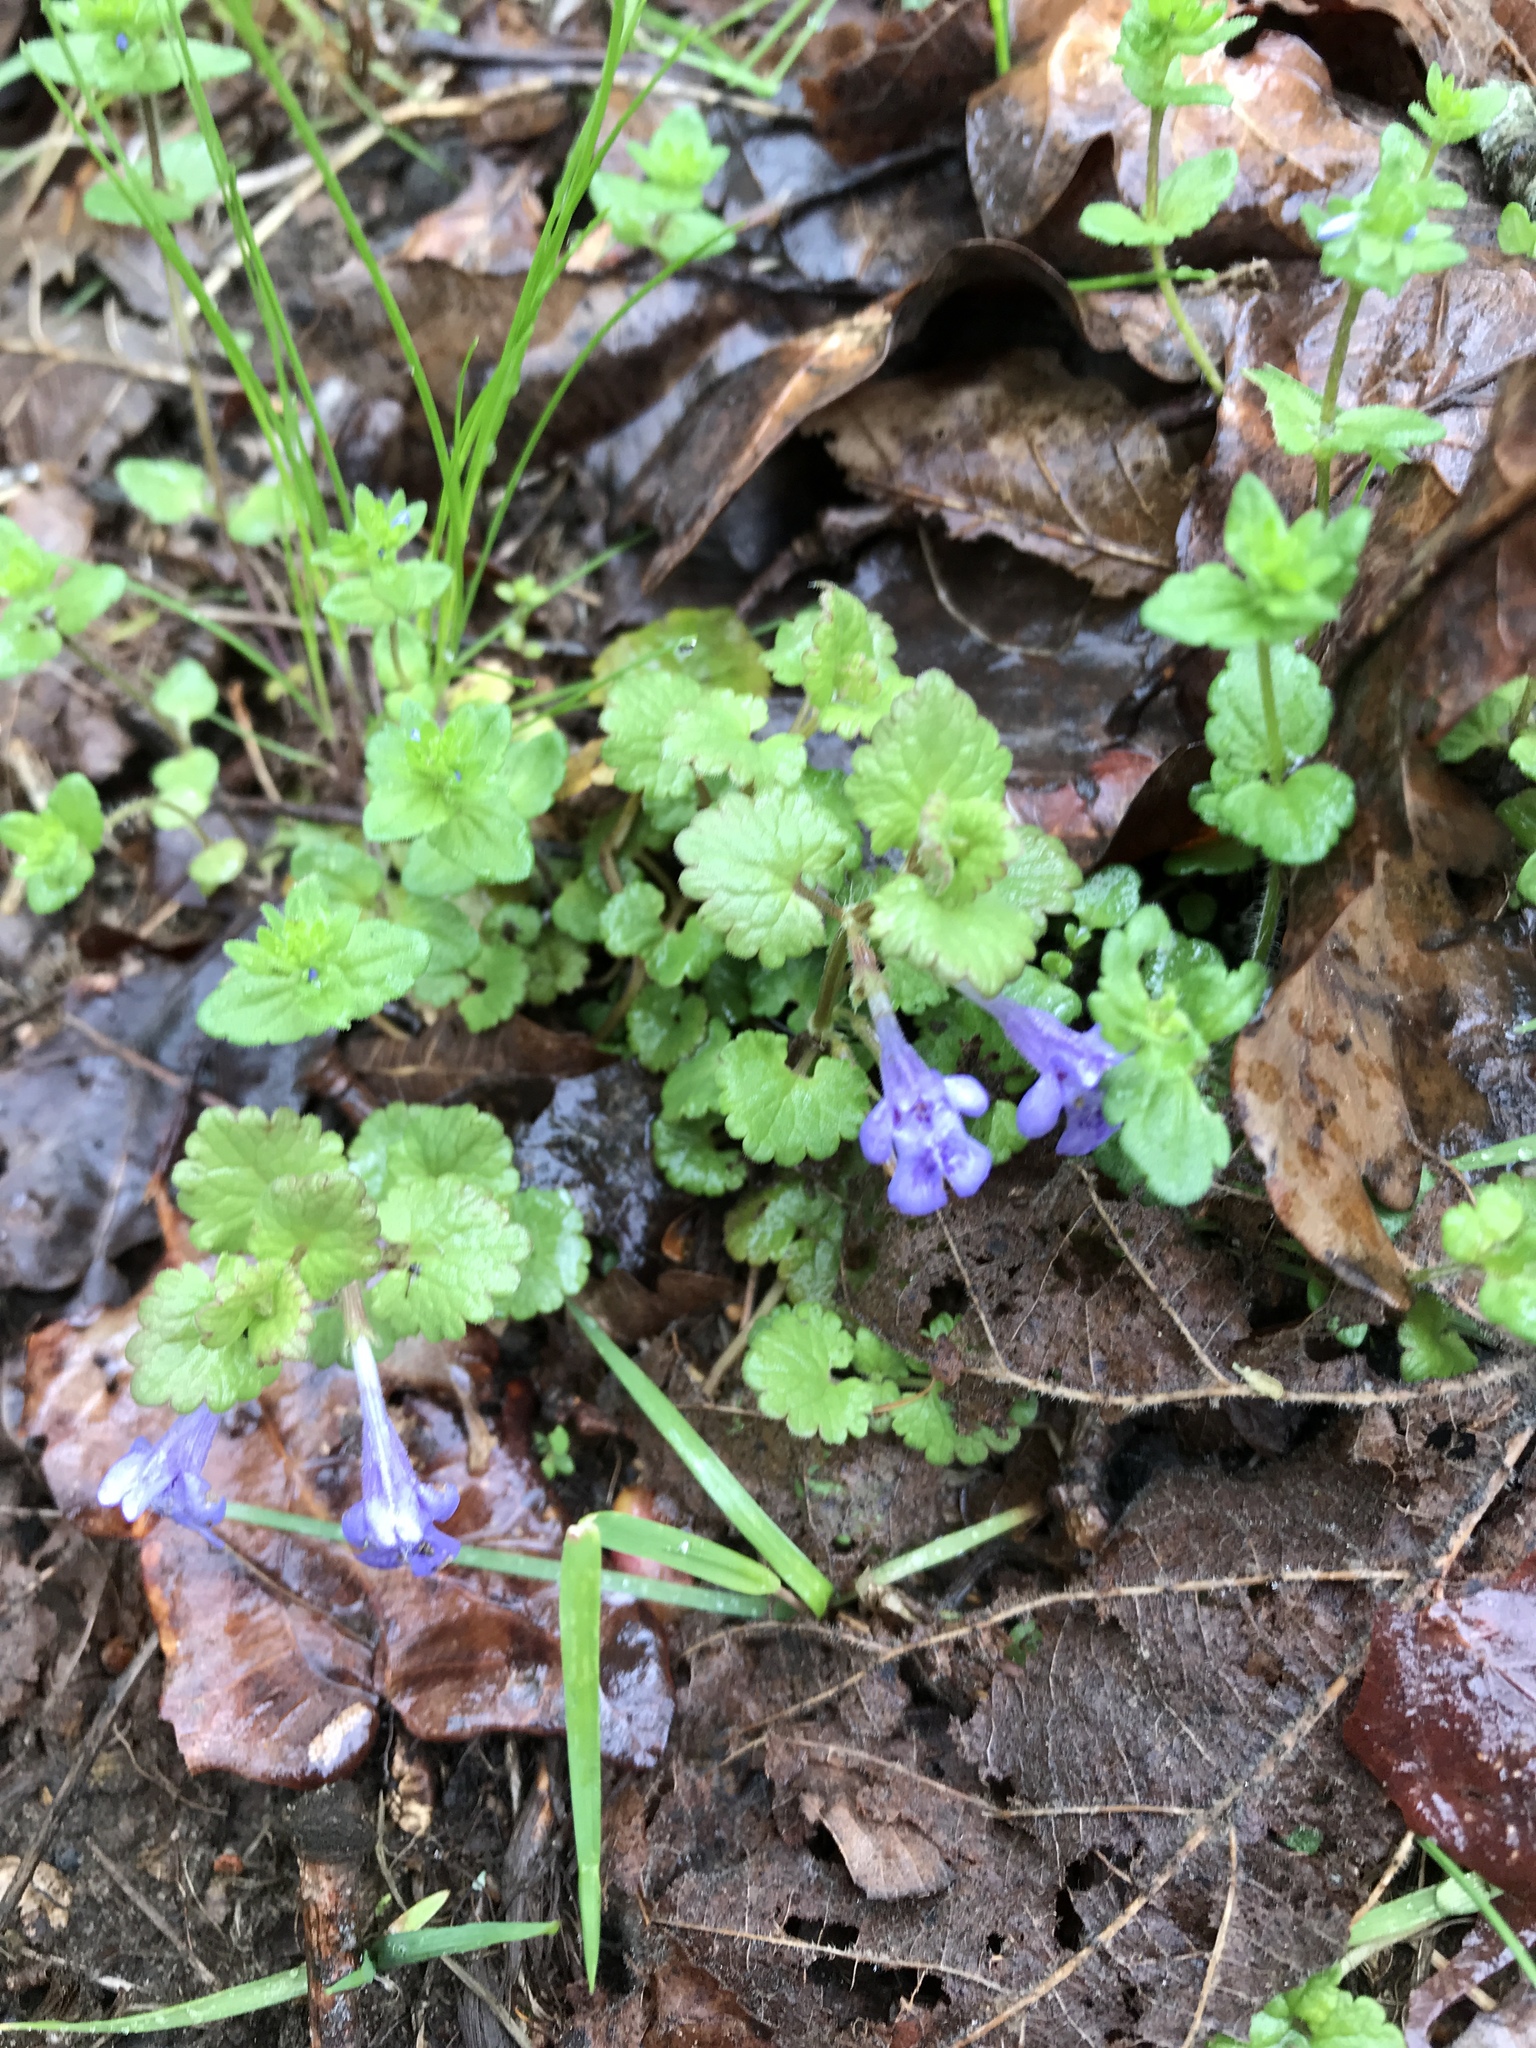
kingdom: Plantae
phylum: Tracheophyta
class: Magnoliopsida
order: Lamiales
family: Lamiaceae
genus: Glechoma
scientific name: Glechoma hederacea
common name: Ground ivy
